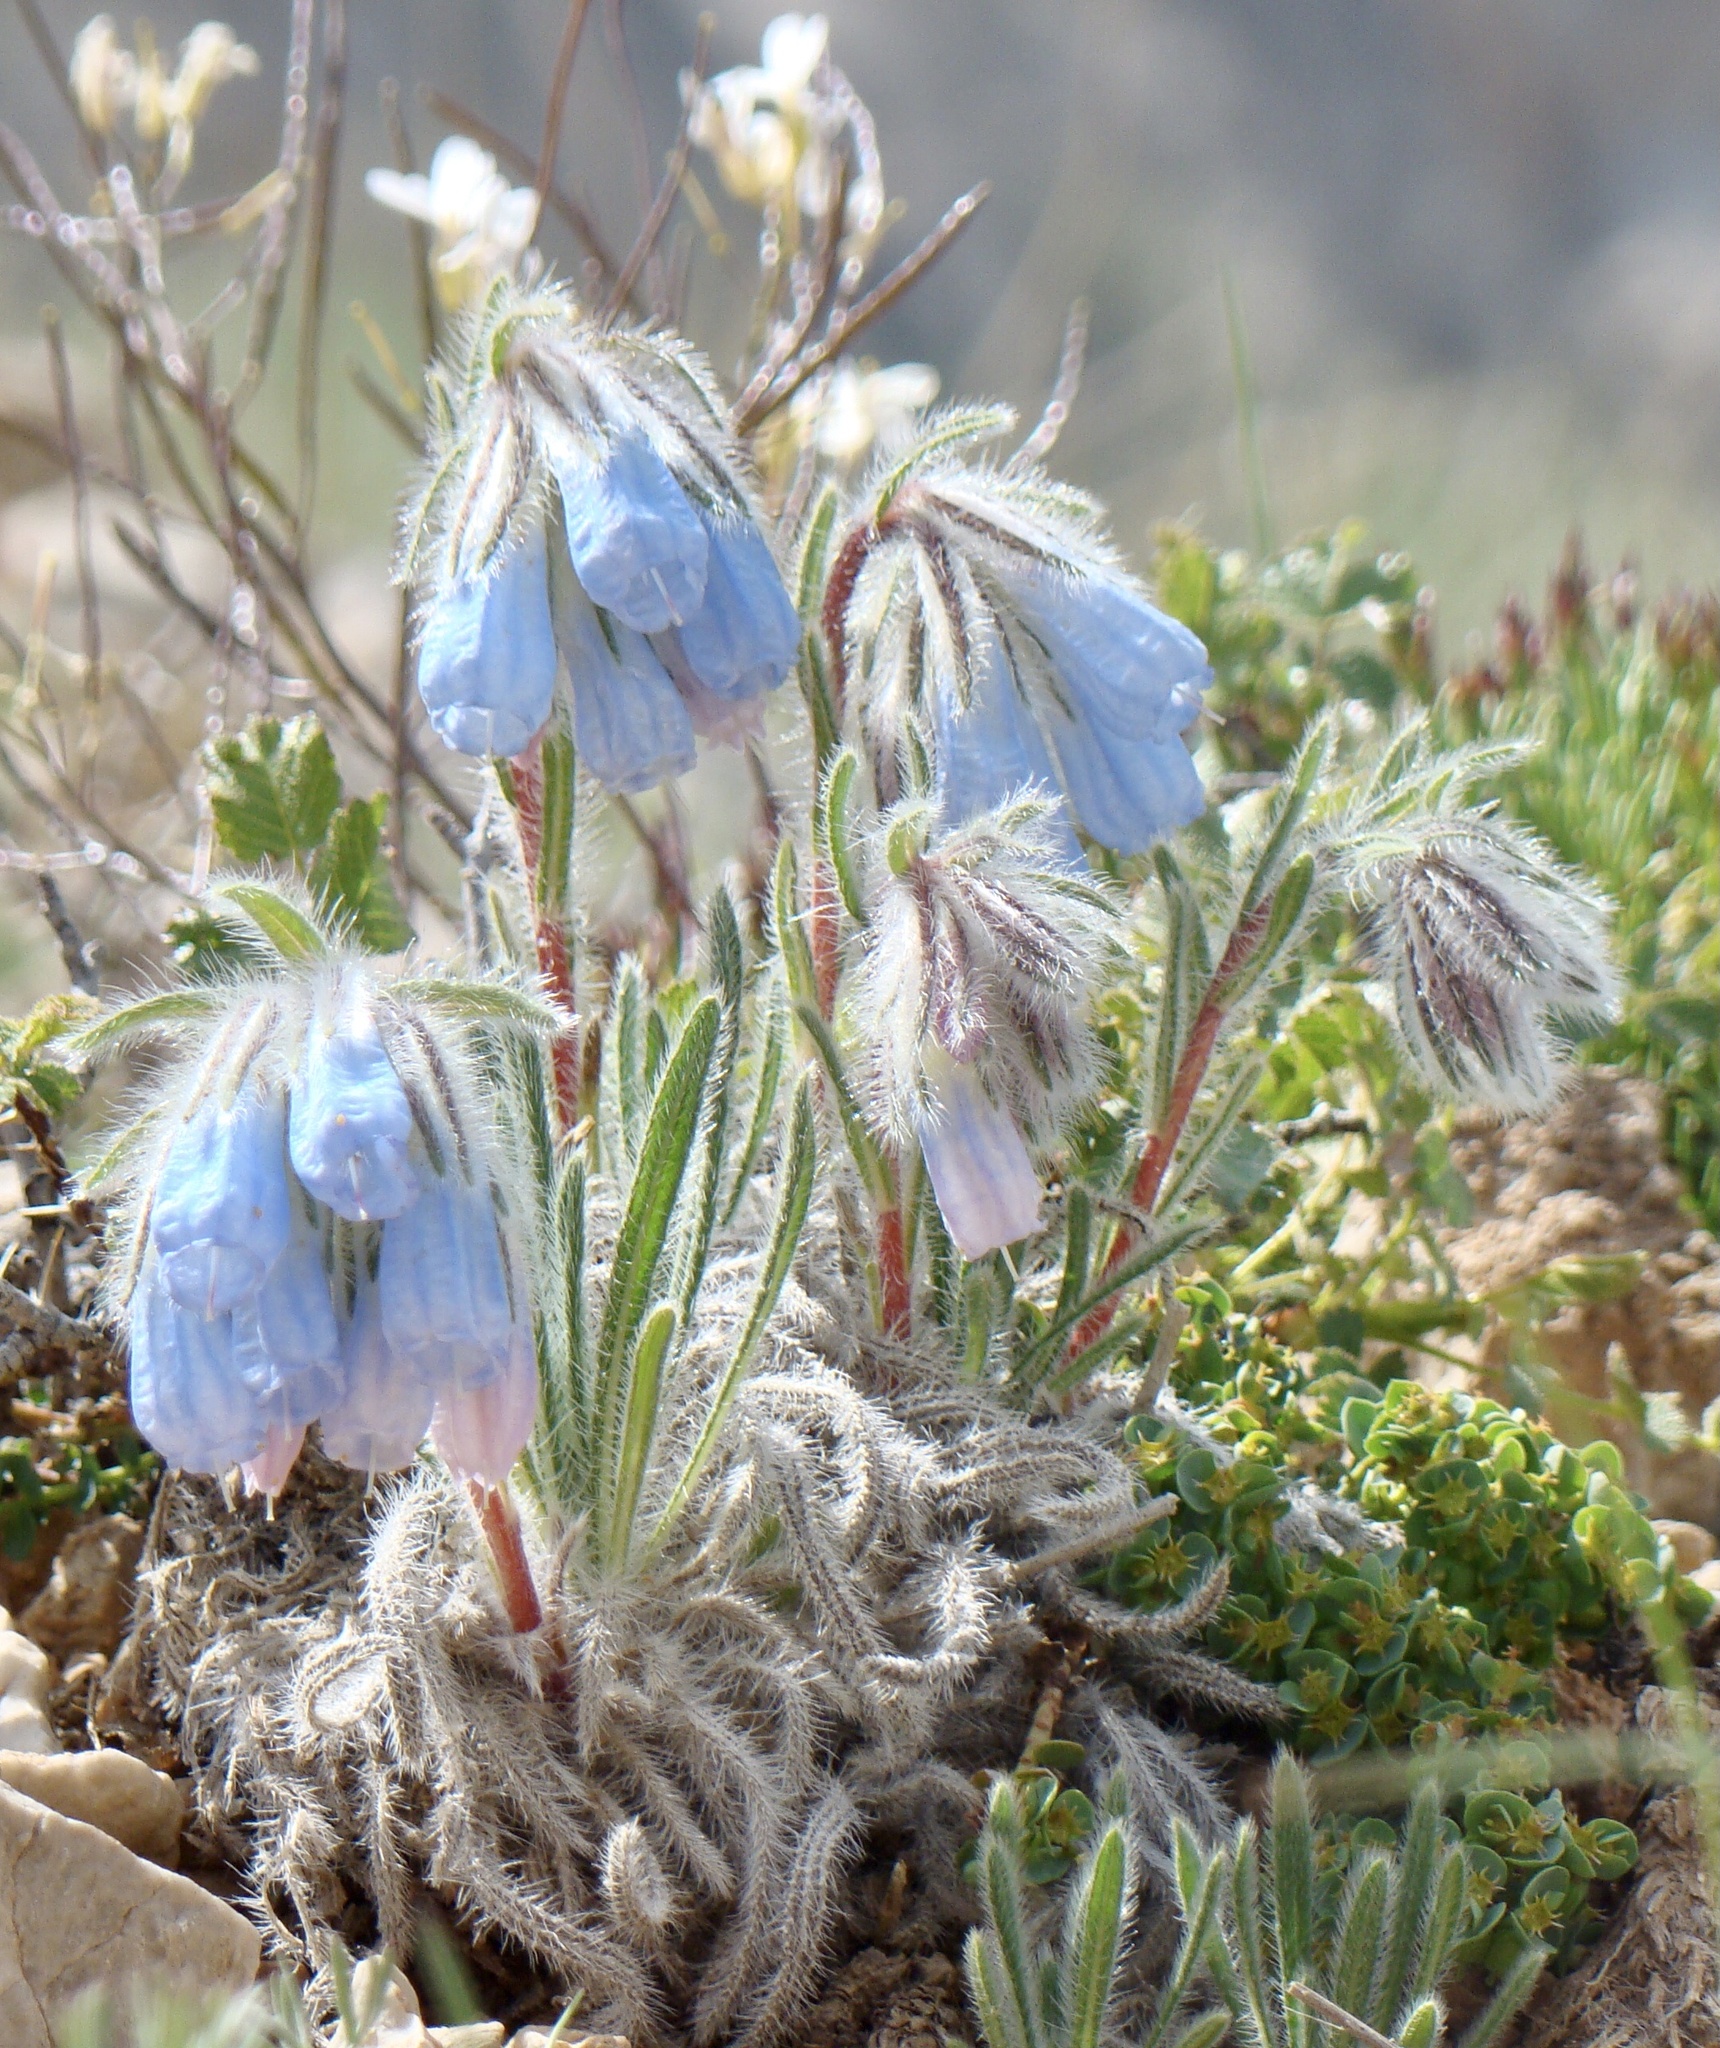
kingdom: Plantae
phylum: Tracheophyta
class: Magnoliopsida
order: Boraginales
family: Boraginaceae
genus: Onosma
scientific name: Onosma nana
